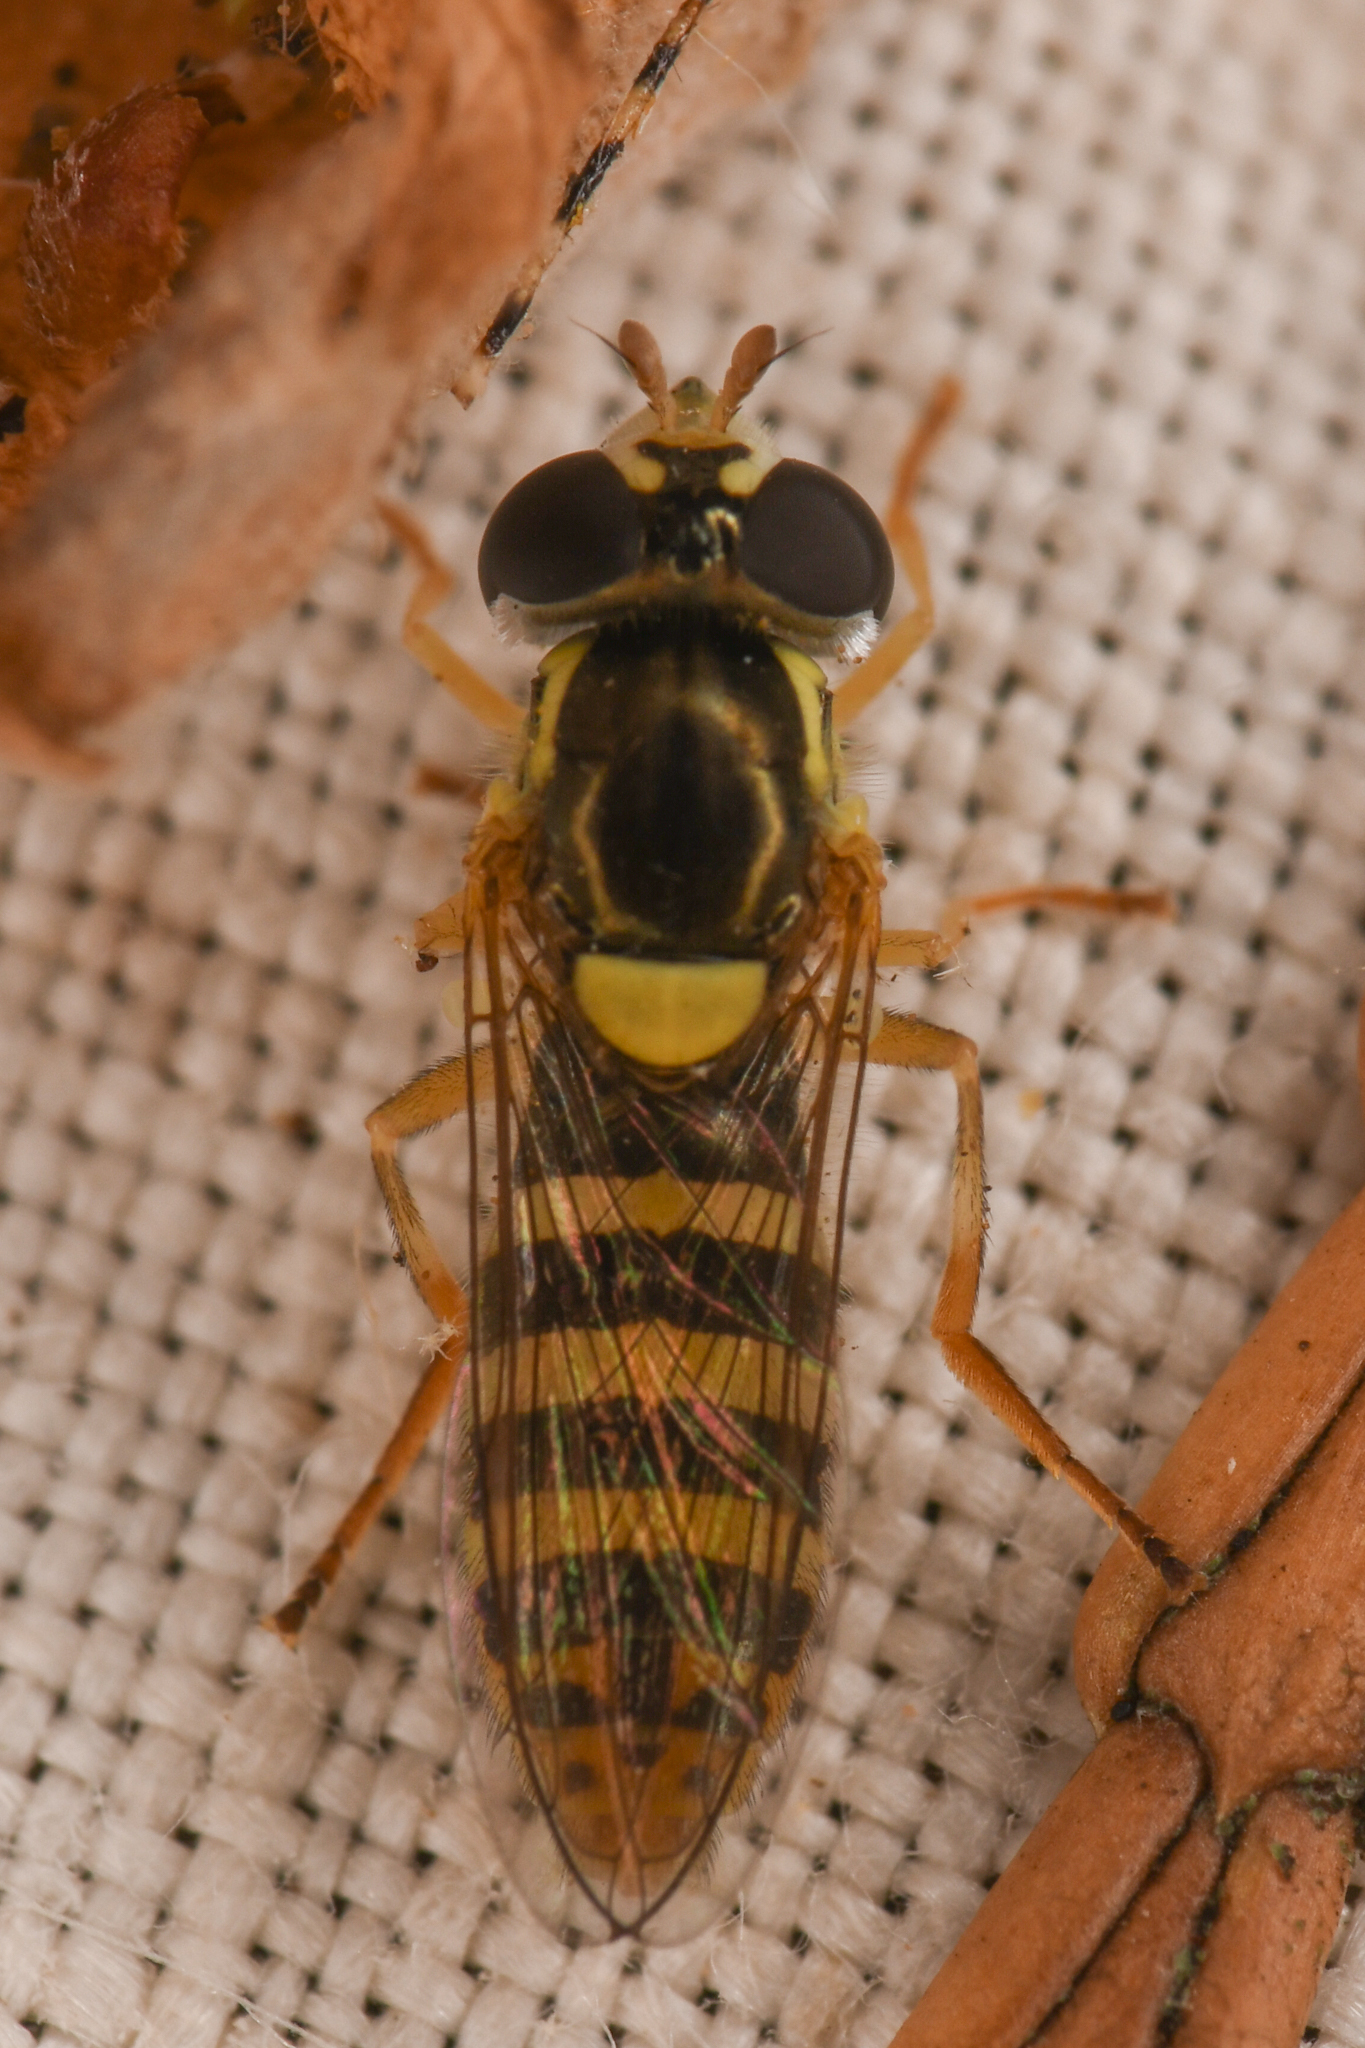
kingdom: Animalia
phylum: Arthropoda
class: Insecta
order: Diptera
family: Syrphidae
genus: Sphaerophoria
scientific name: Sphaerophoria sulphuripes
